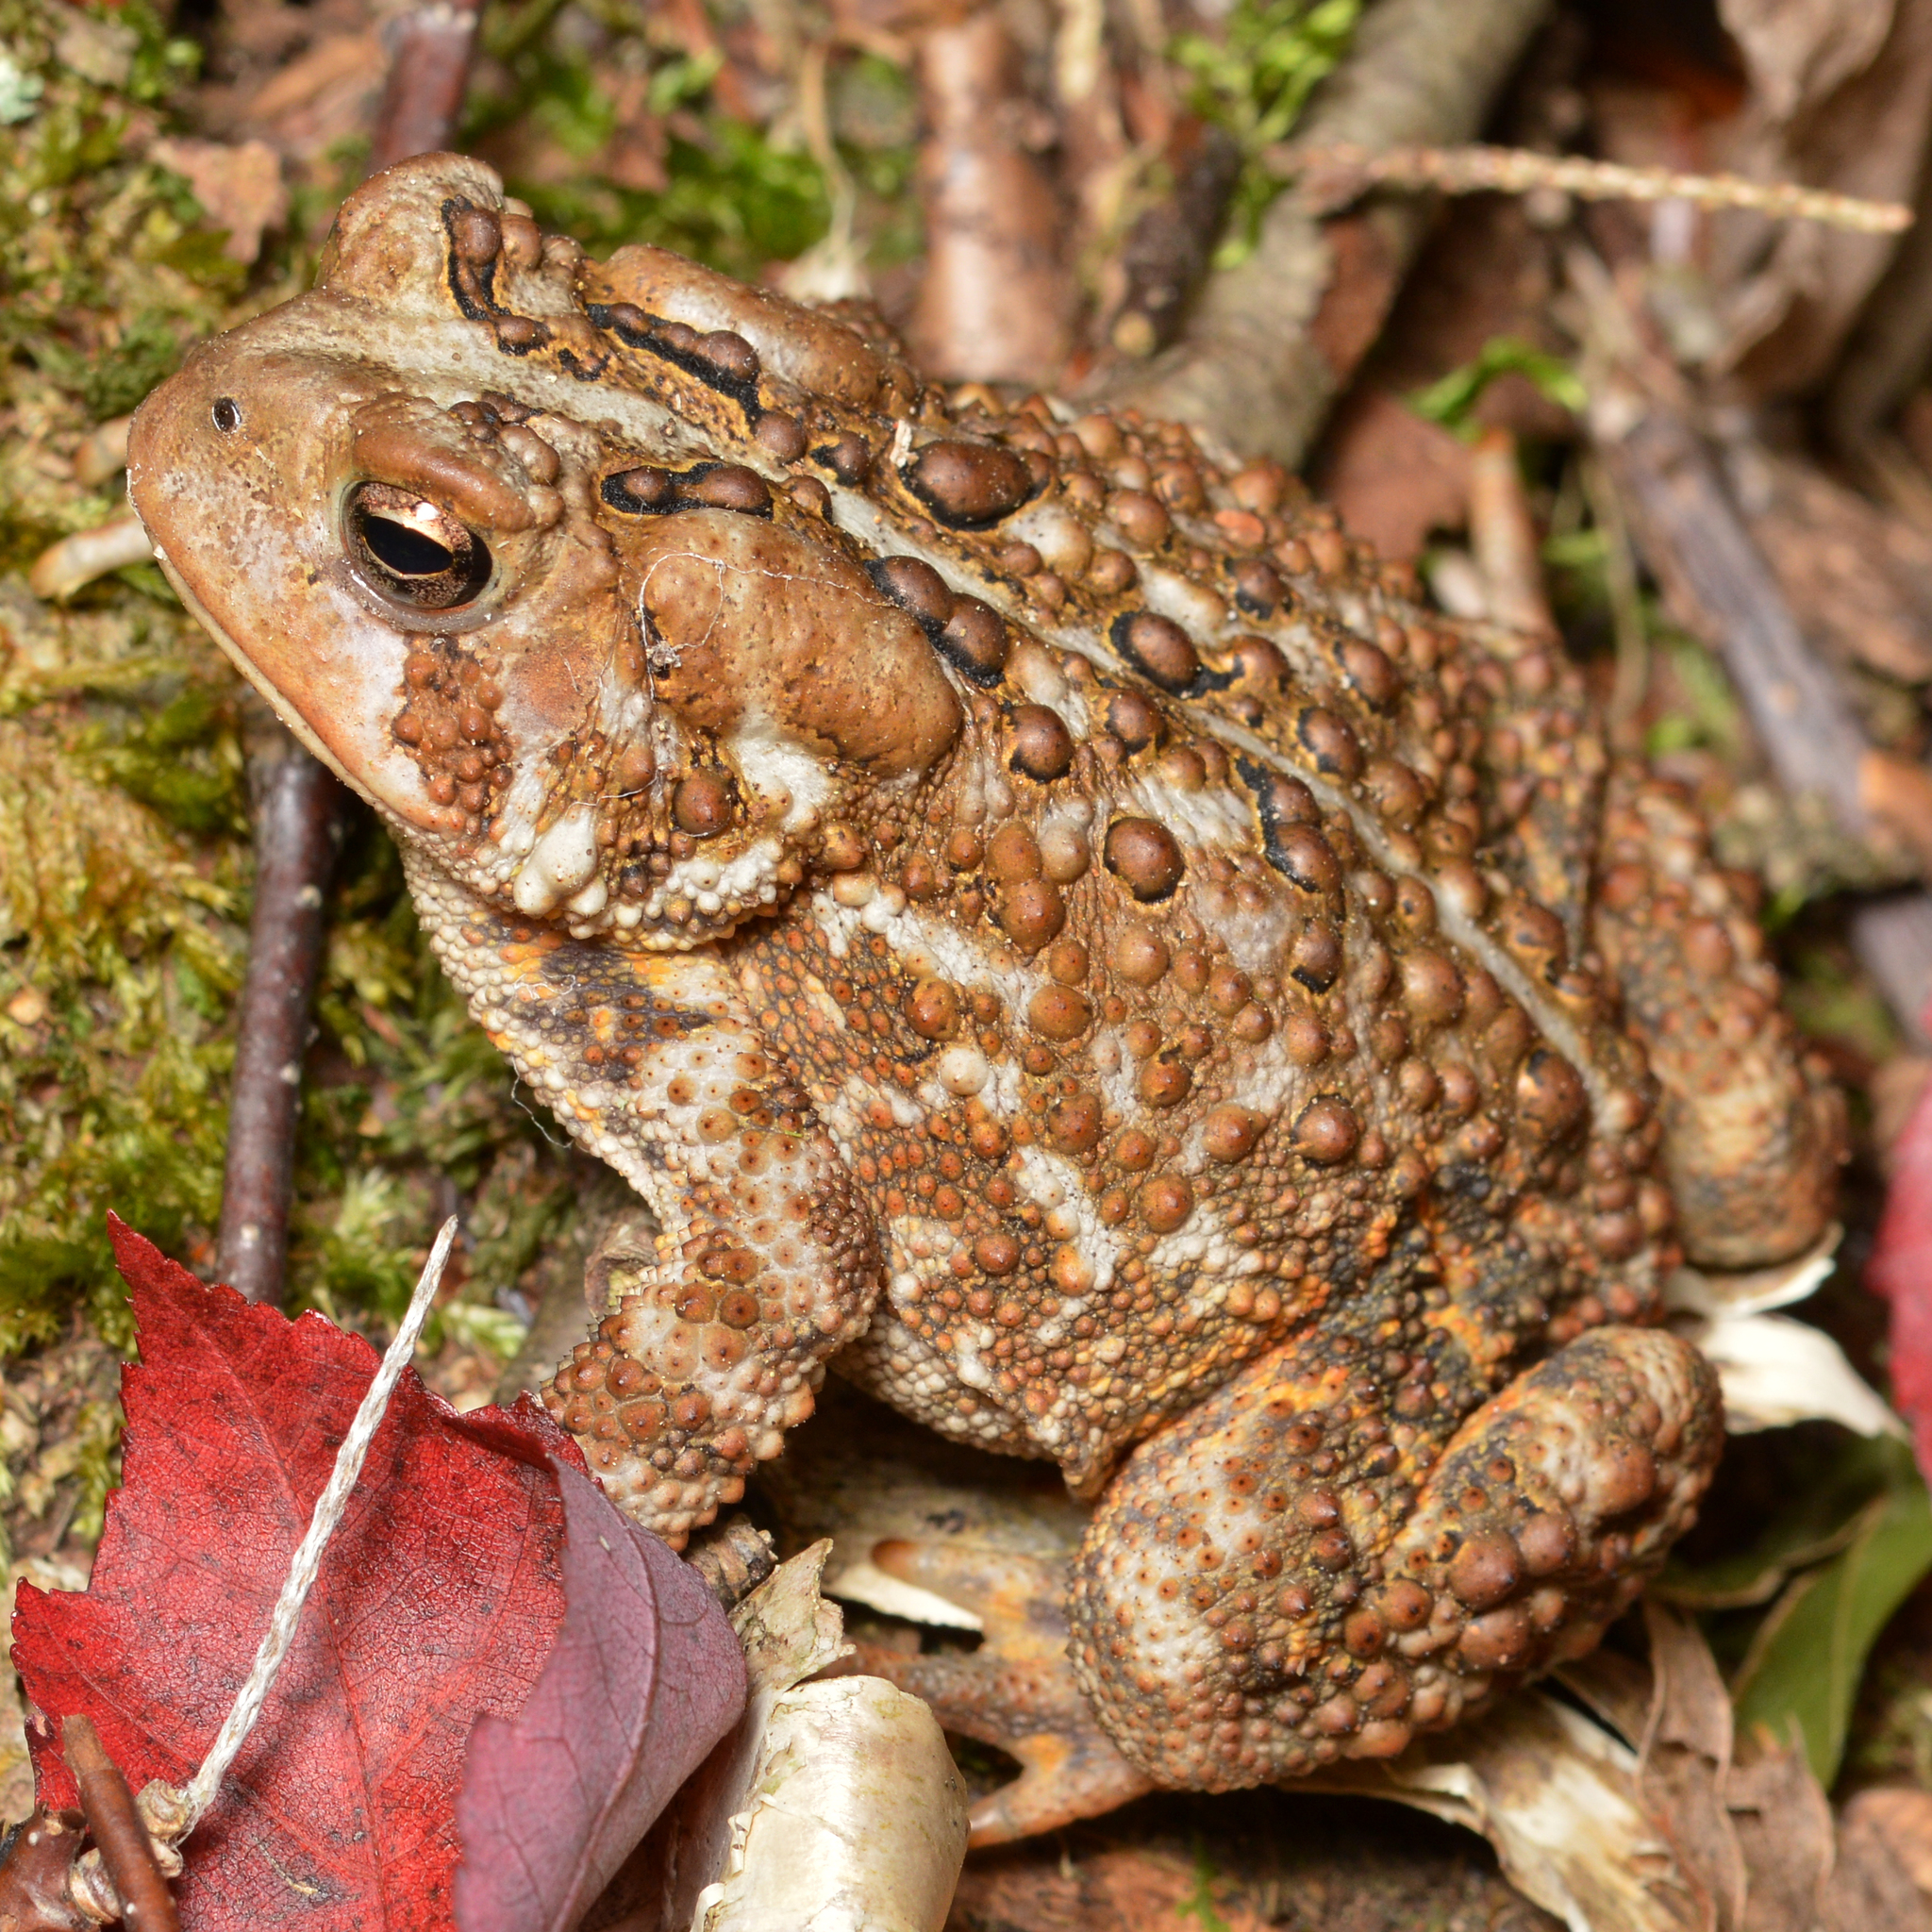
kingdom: Animalia
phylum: Chordata
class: Amphibia
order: Anura
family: Bufonidae
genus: Anaxyrus
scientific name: Anaxyrus americanus
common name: American toad
